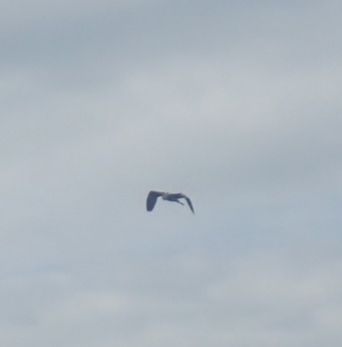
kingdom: Animalia
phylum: Chordata
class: Aves
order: Pelecaniformes
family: Ardeidae
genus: Ardea
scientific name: Ardea cinerea
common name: Grey heron
